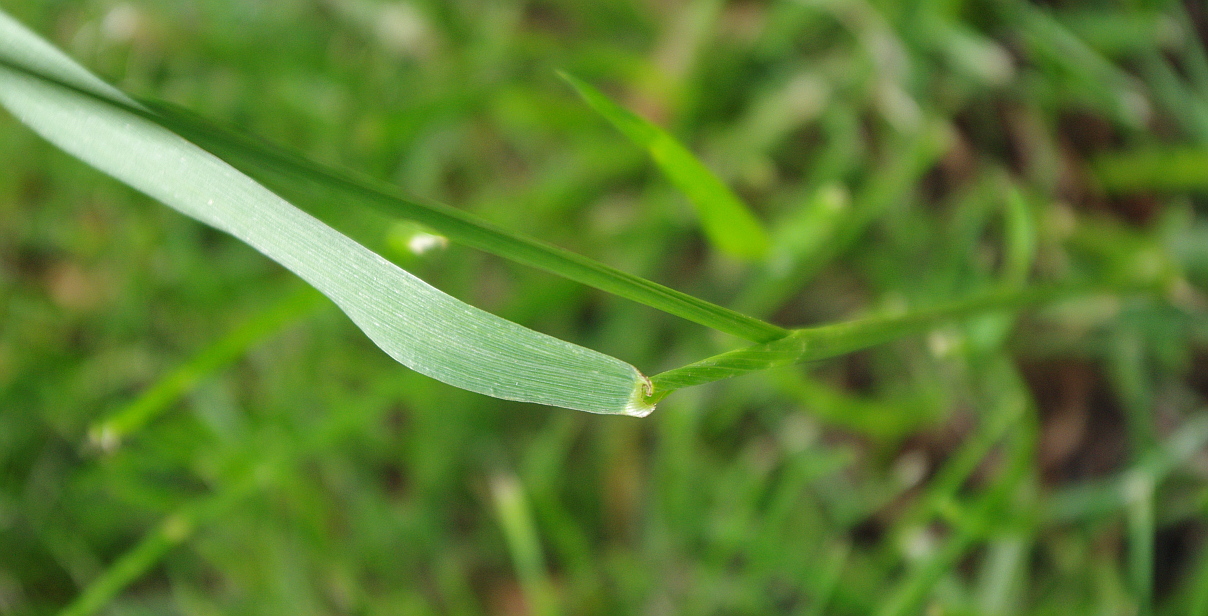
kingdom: Plantae
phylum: Tracheophyta
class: Liliopsida
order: Poales
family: Poaceae
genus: Lolium
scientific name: Lolium pratense
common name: Dover grass
